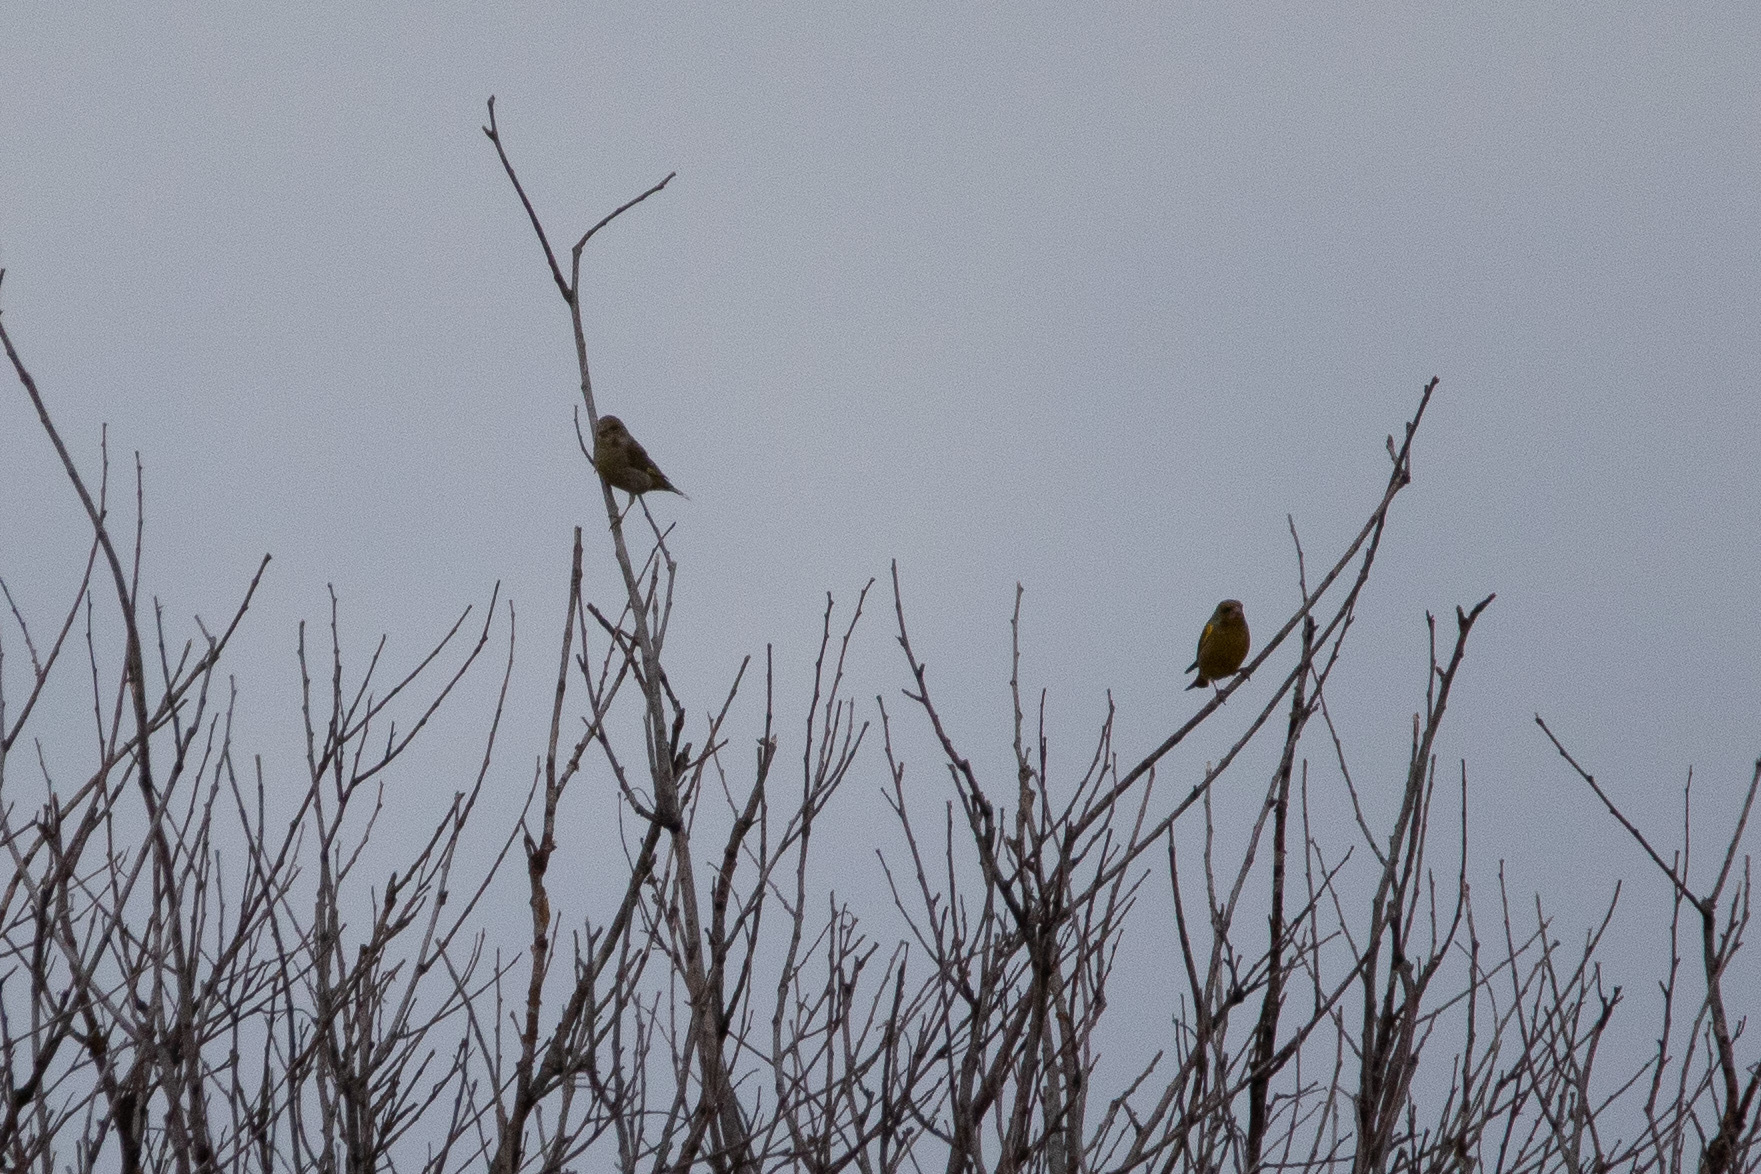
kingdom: Plantae
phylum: Tracheophyta
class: Liliopsida
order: Poales
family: Poaceae
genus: Chloris
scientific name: Chloris chloris
